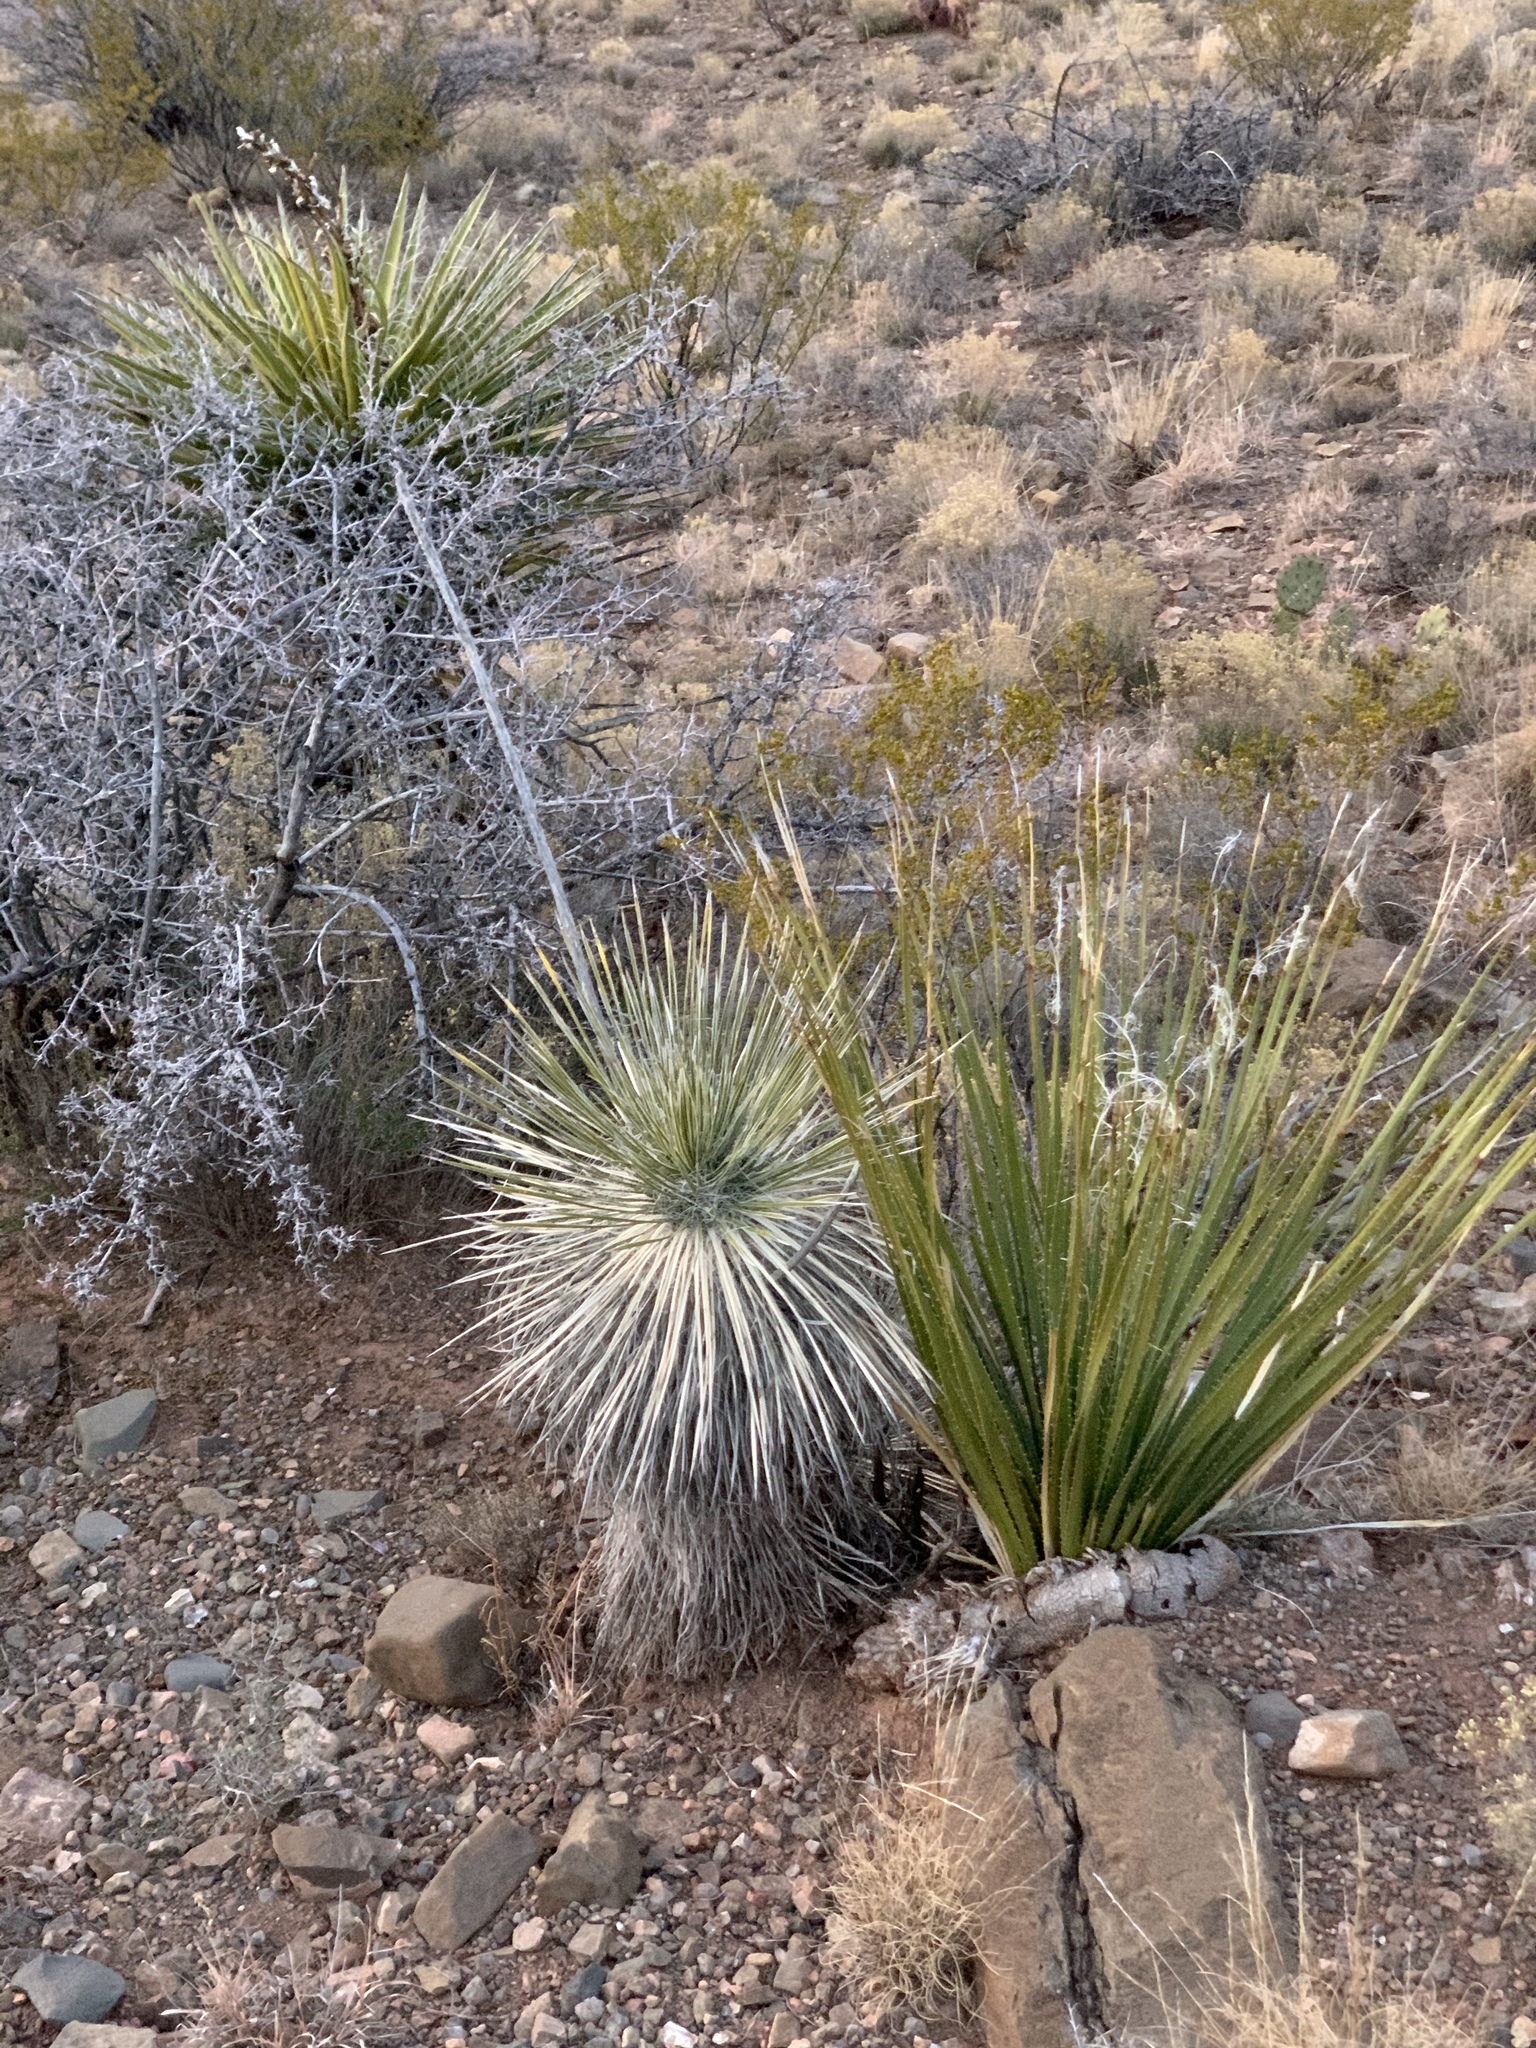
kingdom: Plantae
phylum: Tracheophyta
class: Liliopsida
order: Asparagales
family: Asparagaceae
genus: Yucca
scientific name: Yucca elata
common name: Palmella
